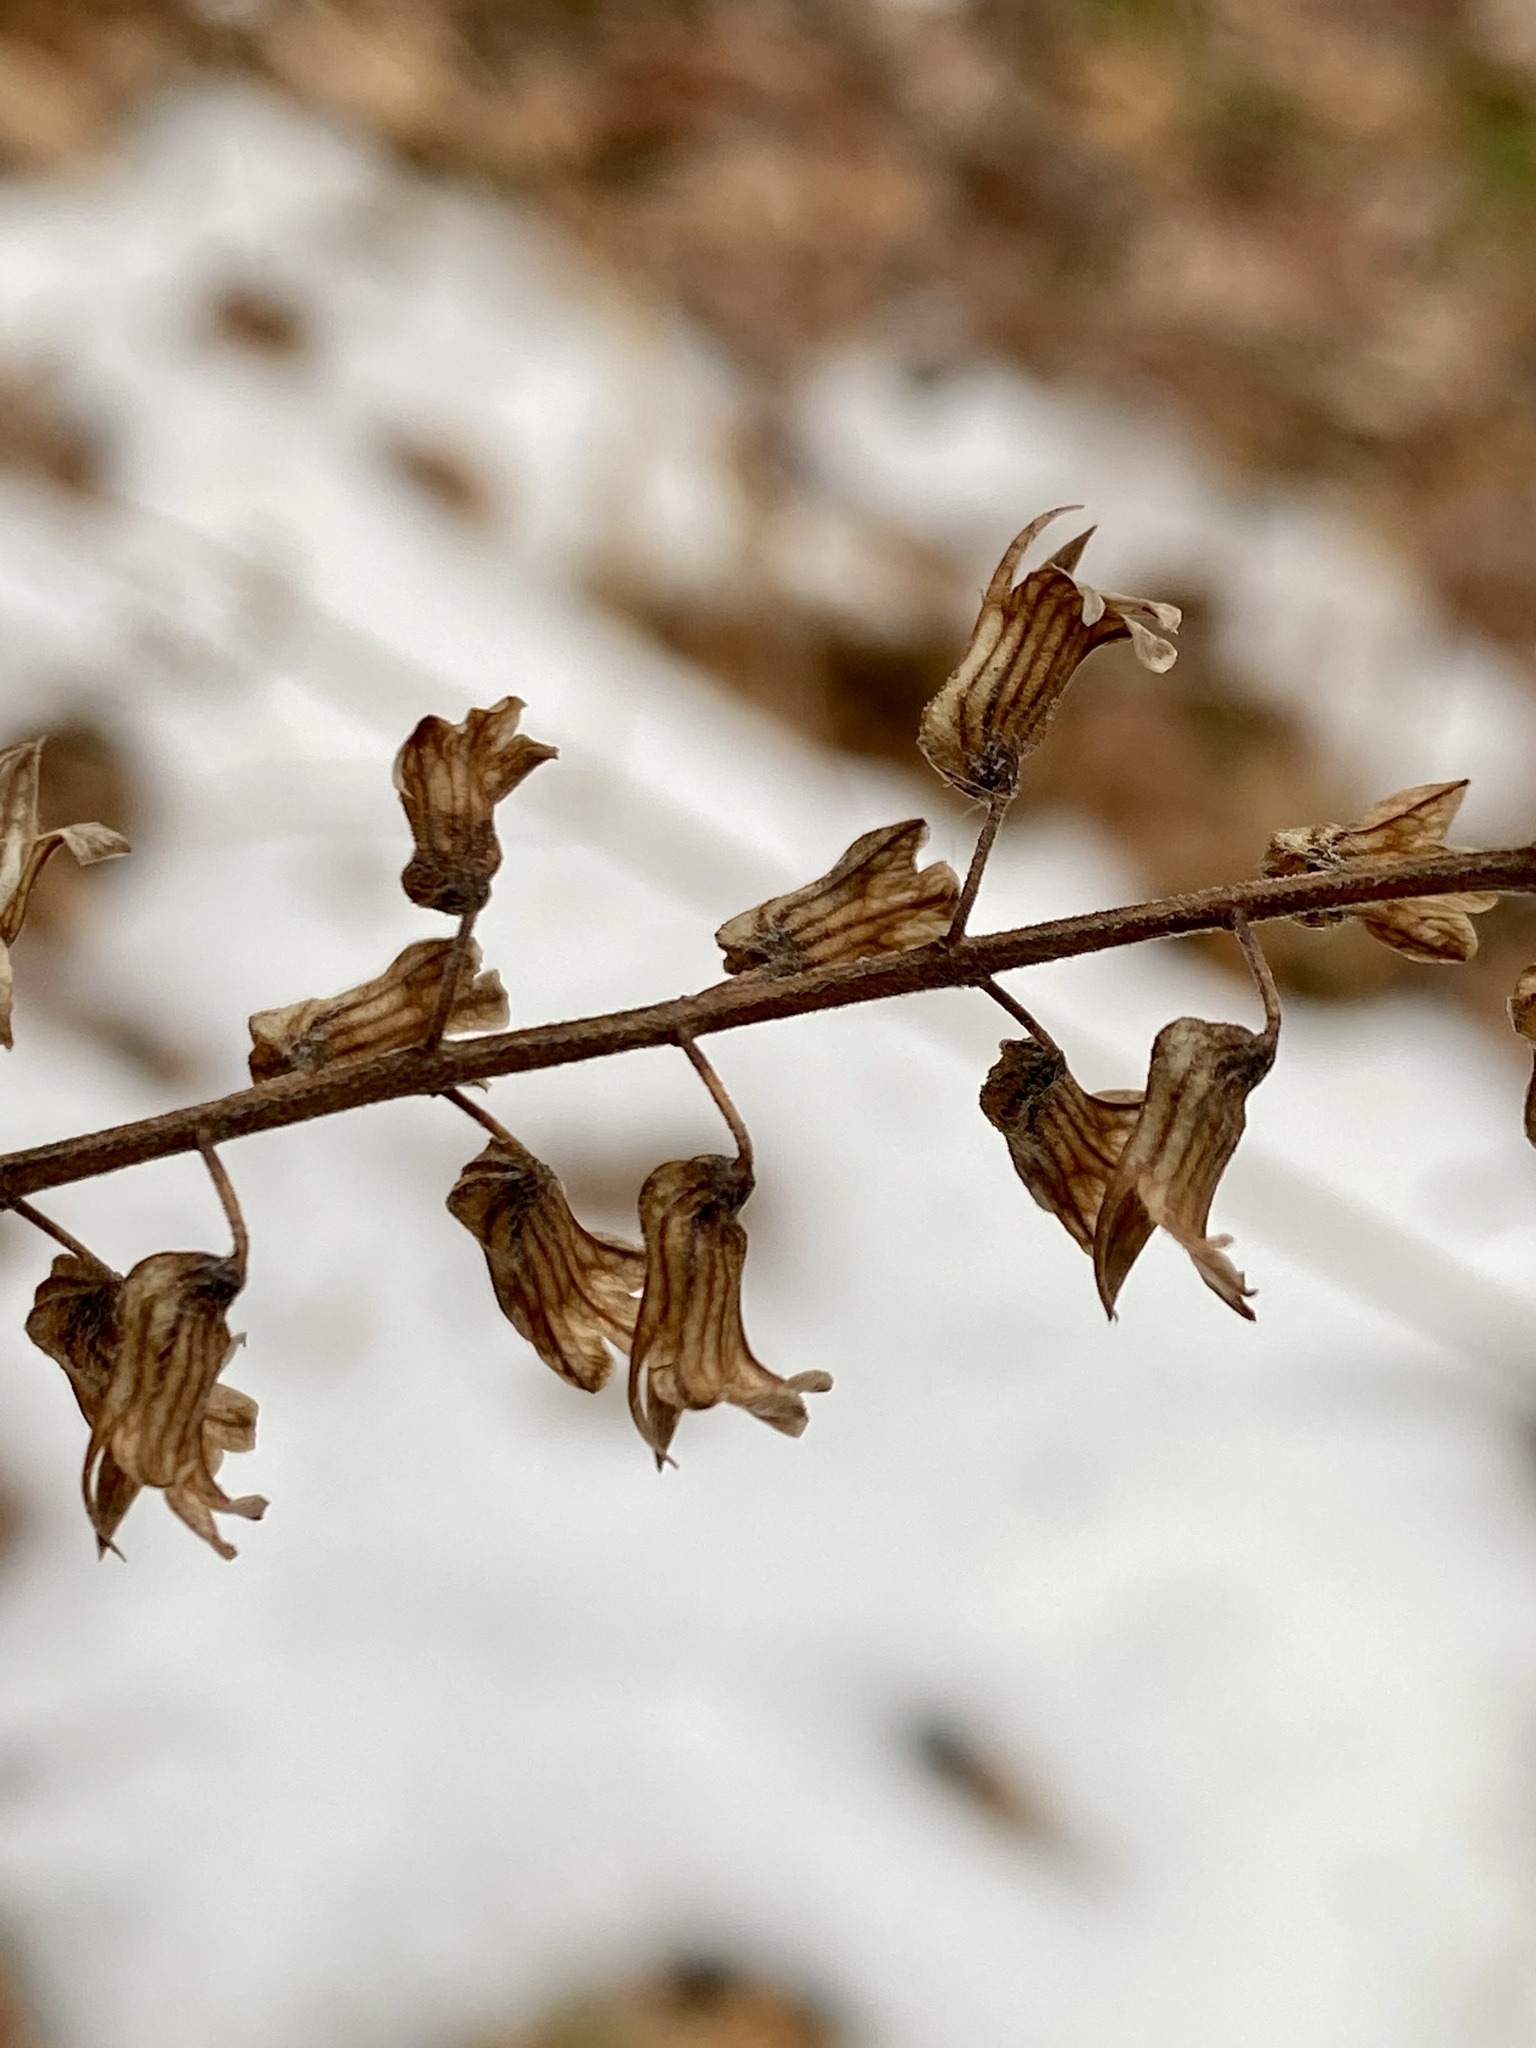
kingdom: Plantae
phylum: Tracheophyta
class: Magnoliopsida
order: Lamiales
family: Lamiaceae
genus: Perilla
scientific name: Perilla frutescens
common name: Perilla
